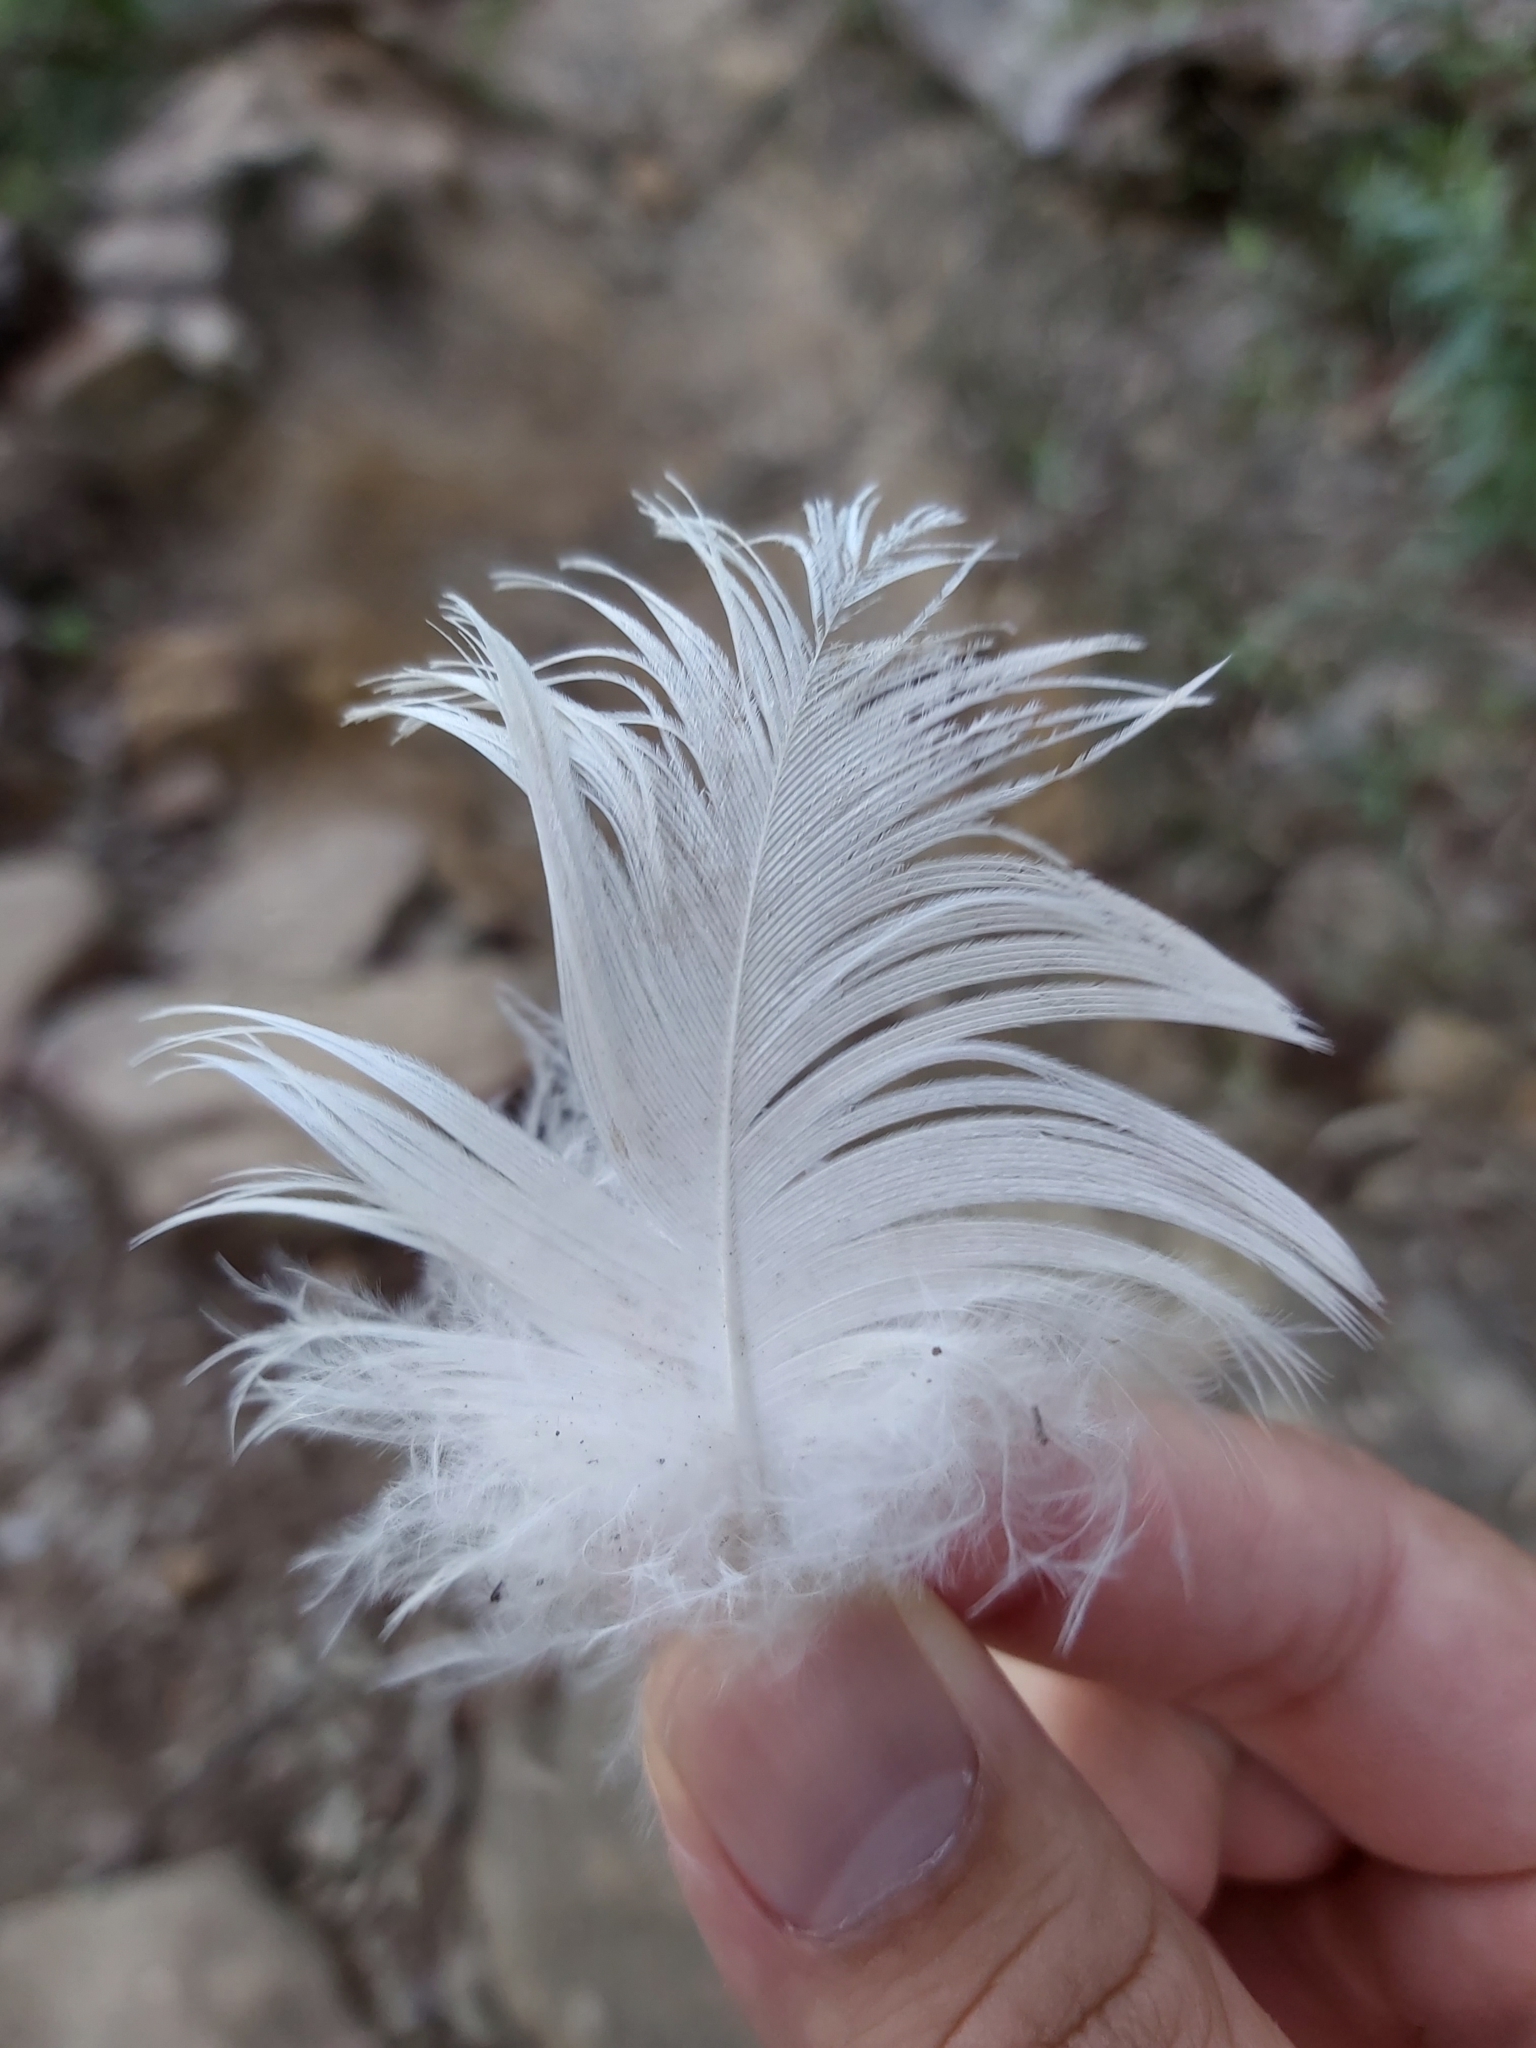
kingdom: Animalia
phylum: Chordata
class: Aves
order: Psittaciformes
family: Psittacidae
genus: Cacatua
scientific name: Cacatua galerita
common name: Sulphur-crested cockatoo
